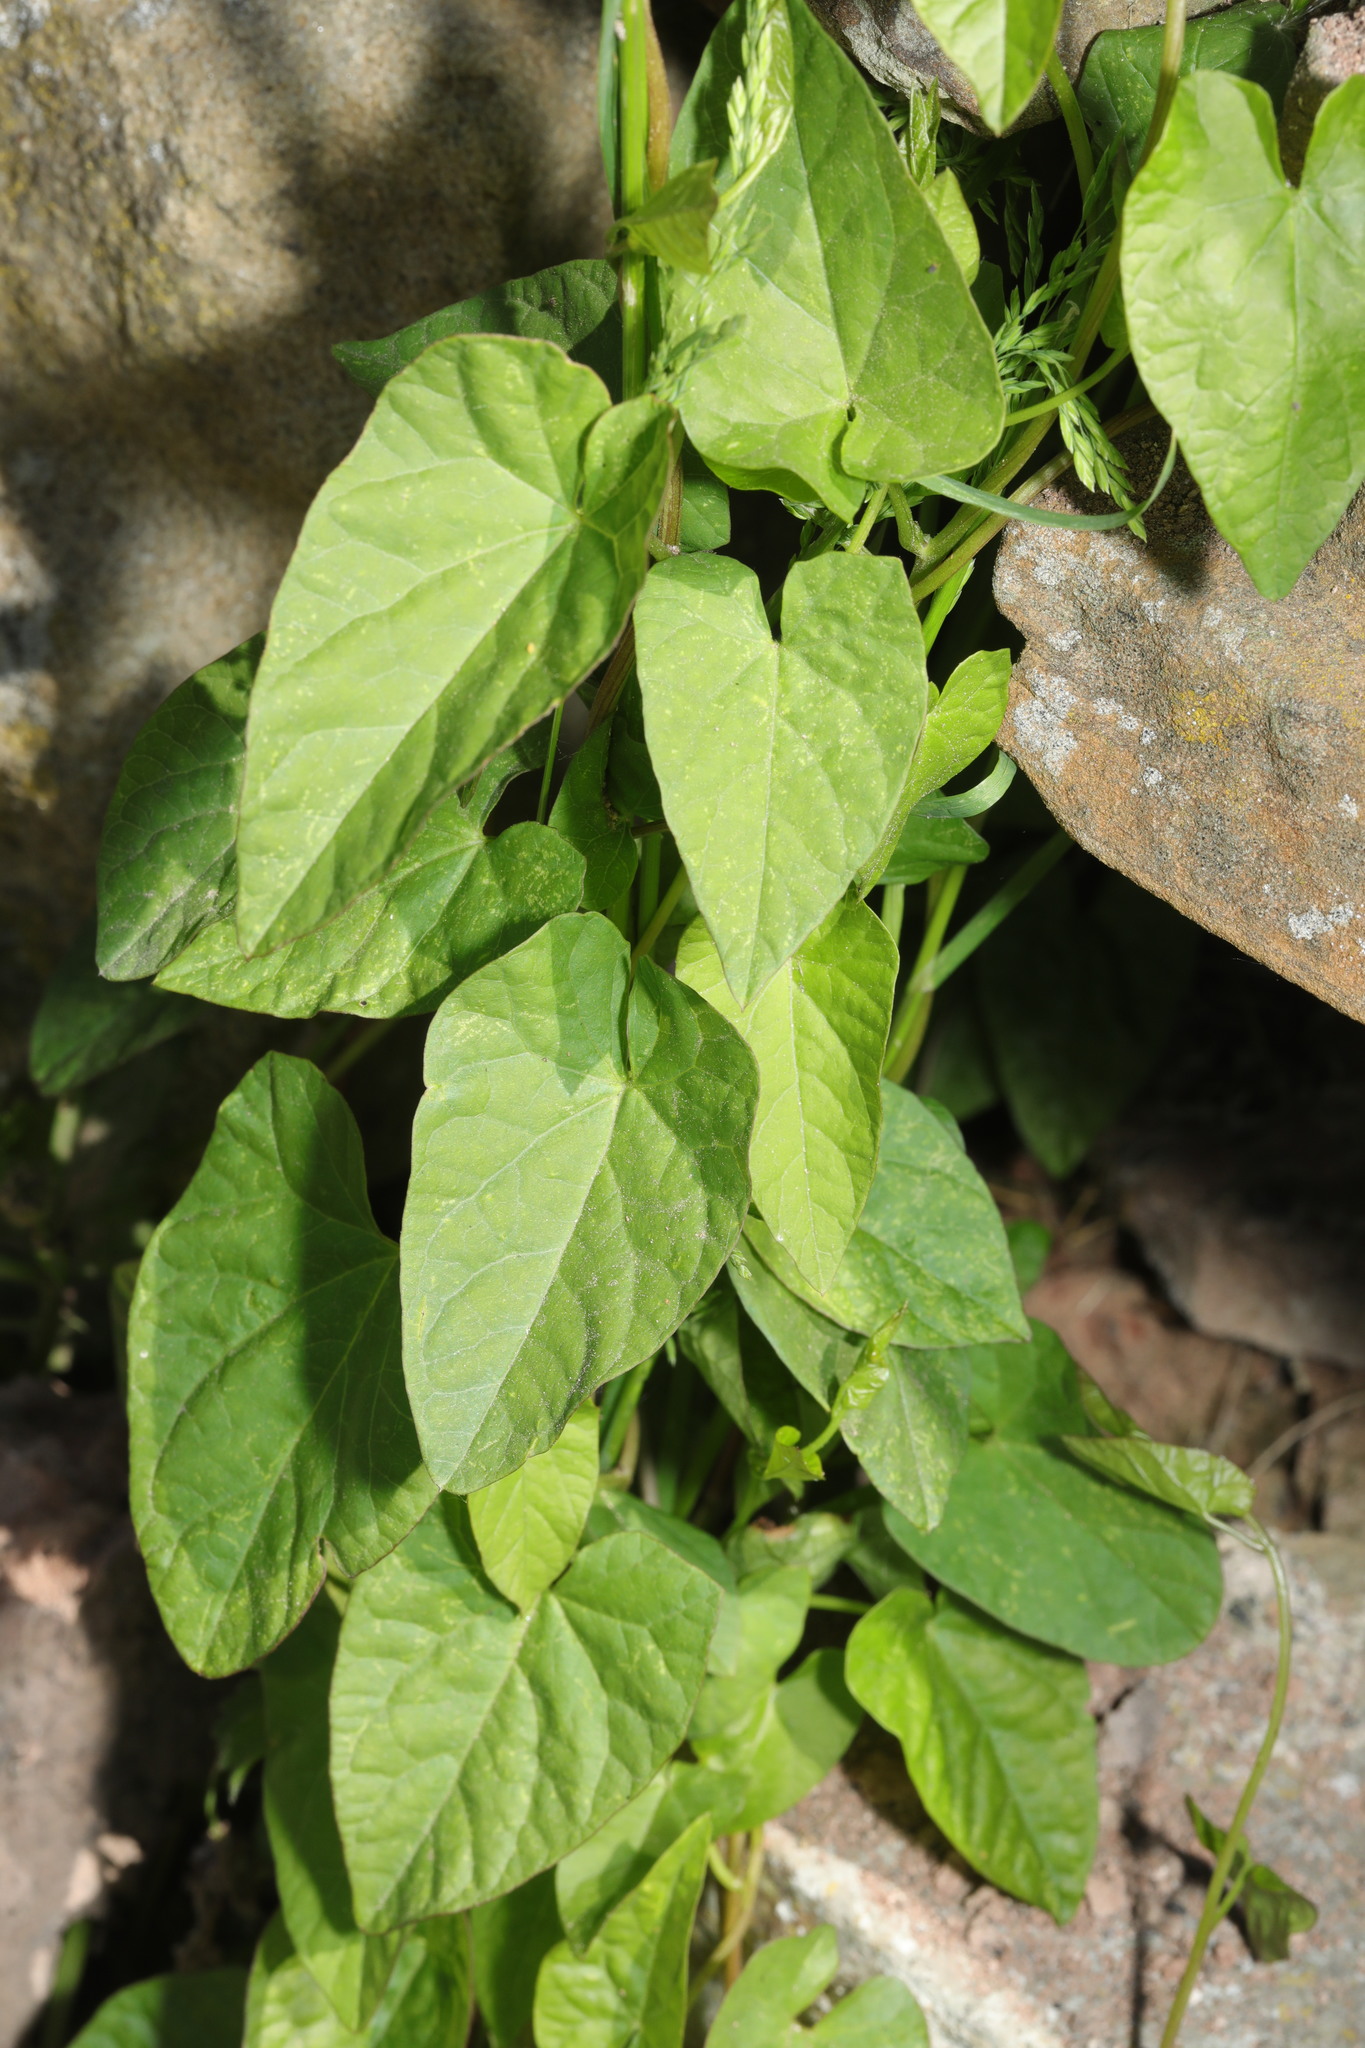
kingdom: Plantae
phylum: Tracheophyta
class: Magnoliopsida
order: Solanales
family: Convolvulaceae
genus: Calystegia
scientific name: Calystegia
